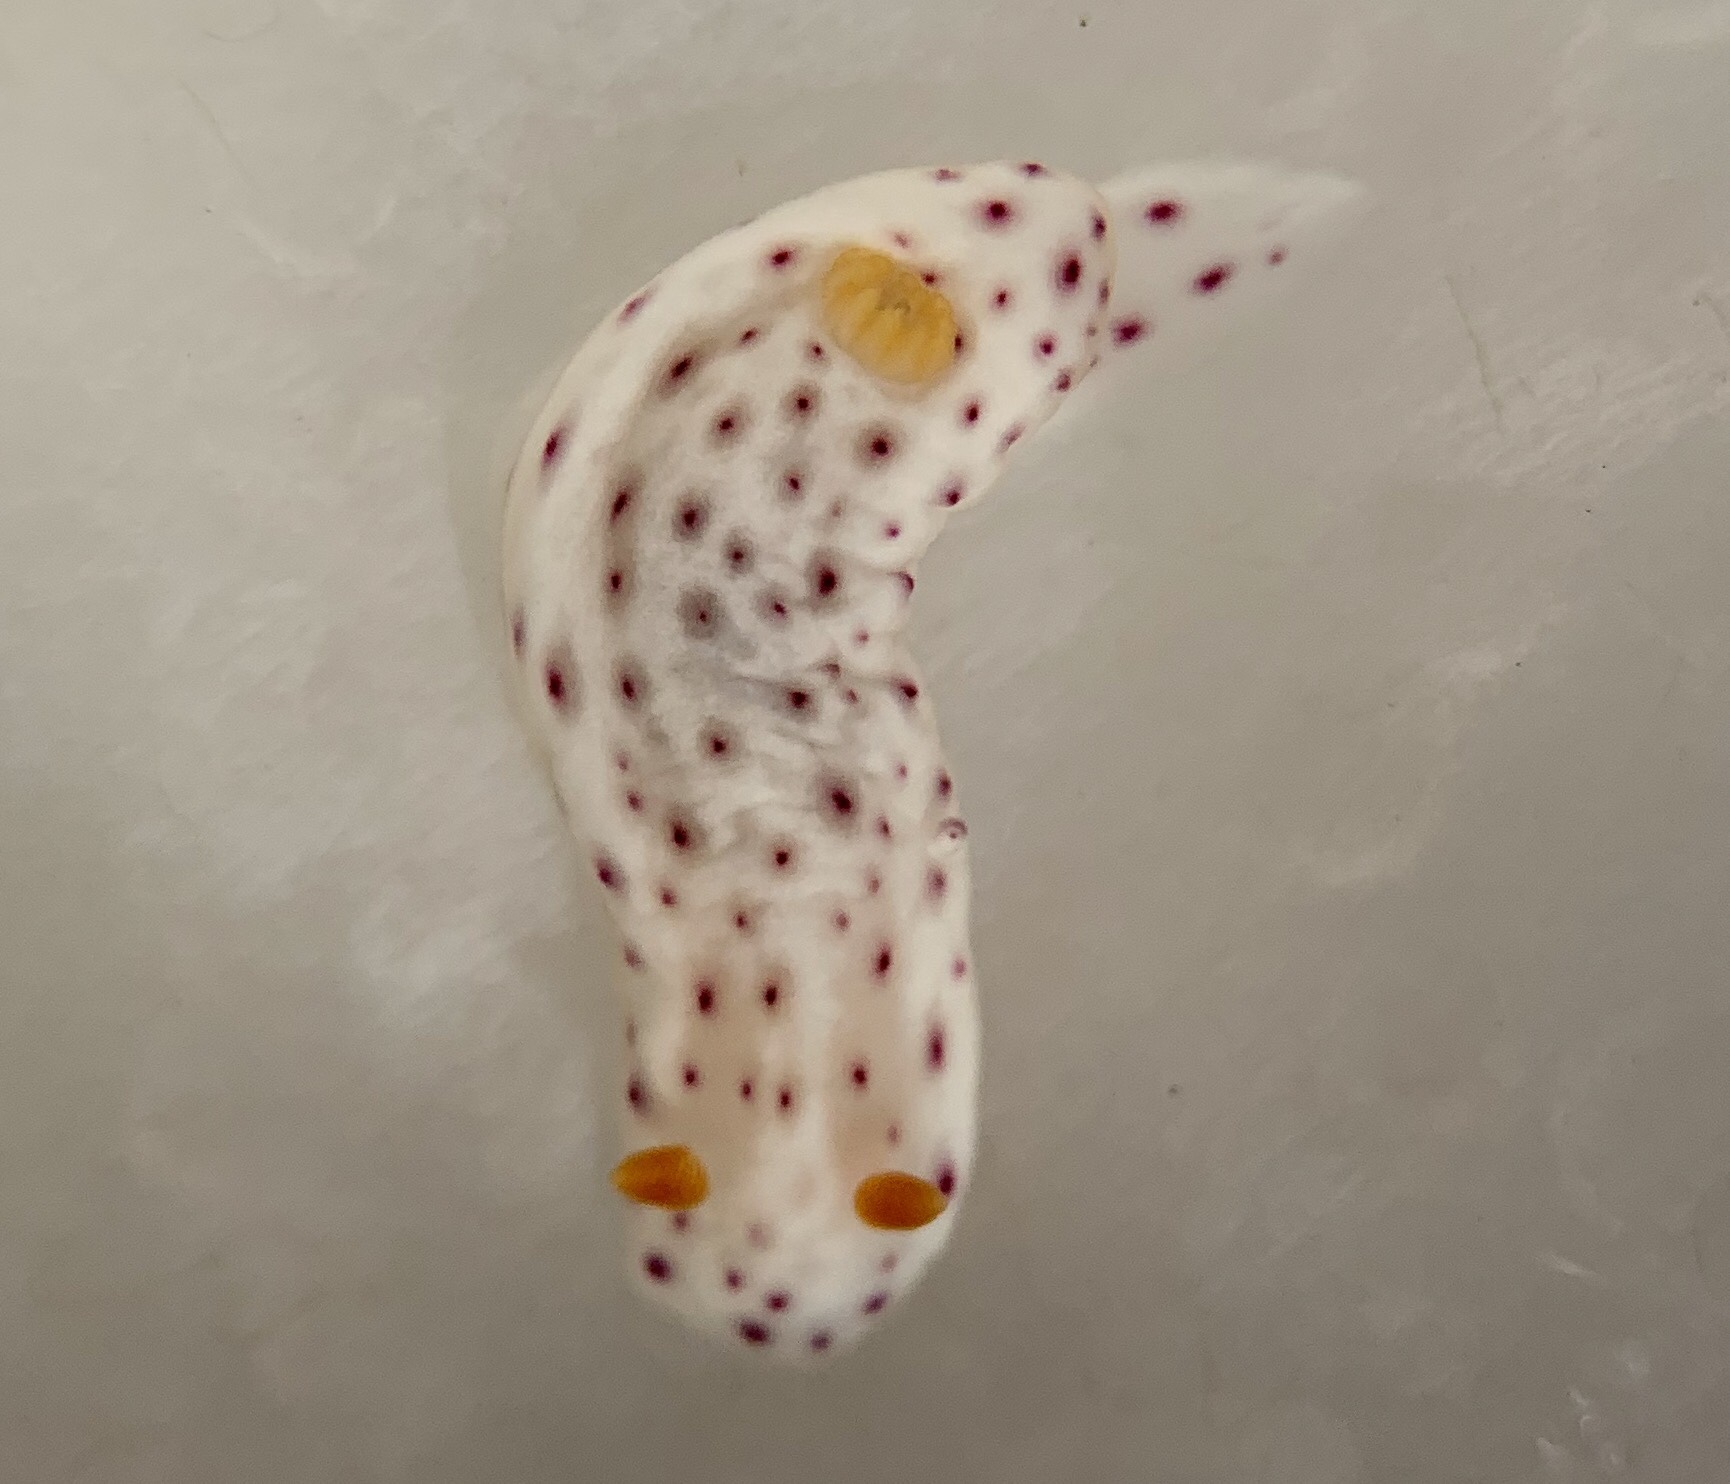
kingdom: Animalia
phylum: Mollusca
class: Gastropoda
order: Nudibranchia
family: Chromodorididae
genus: Chromodoris
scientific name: Chromodoris aspersa
